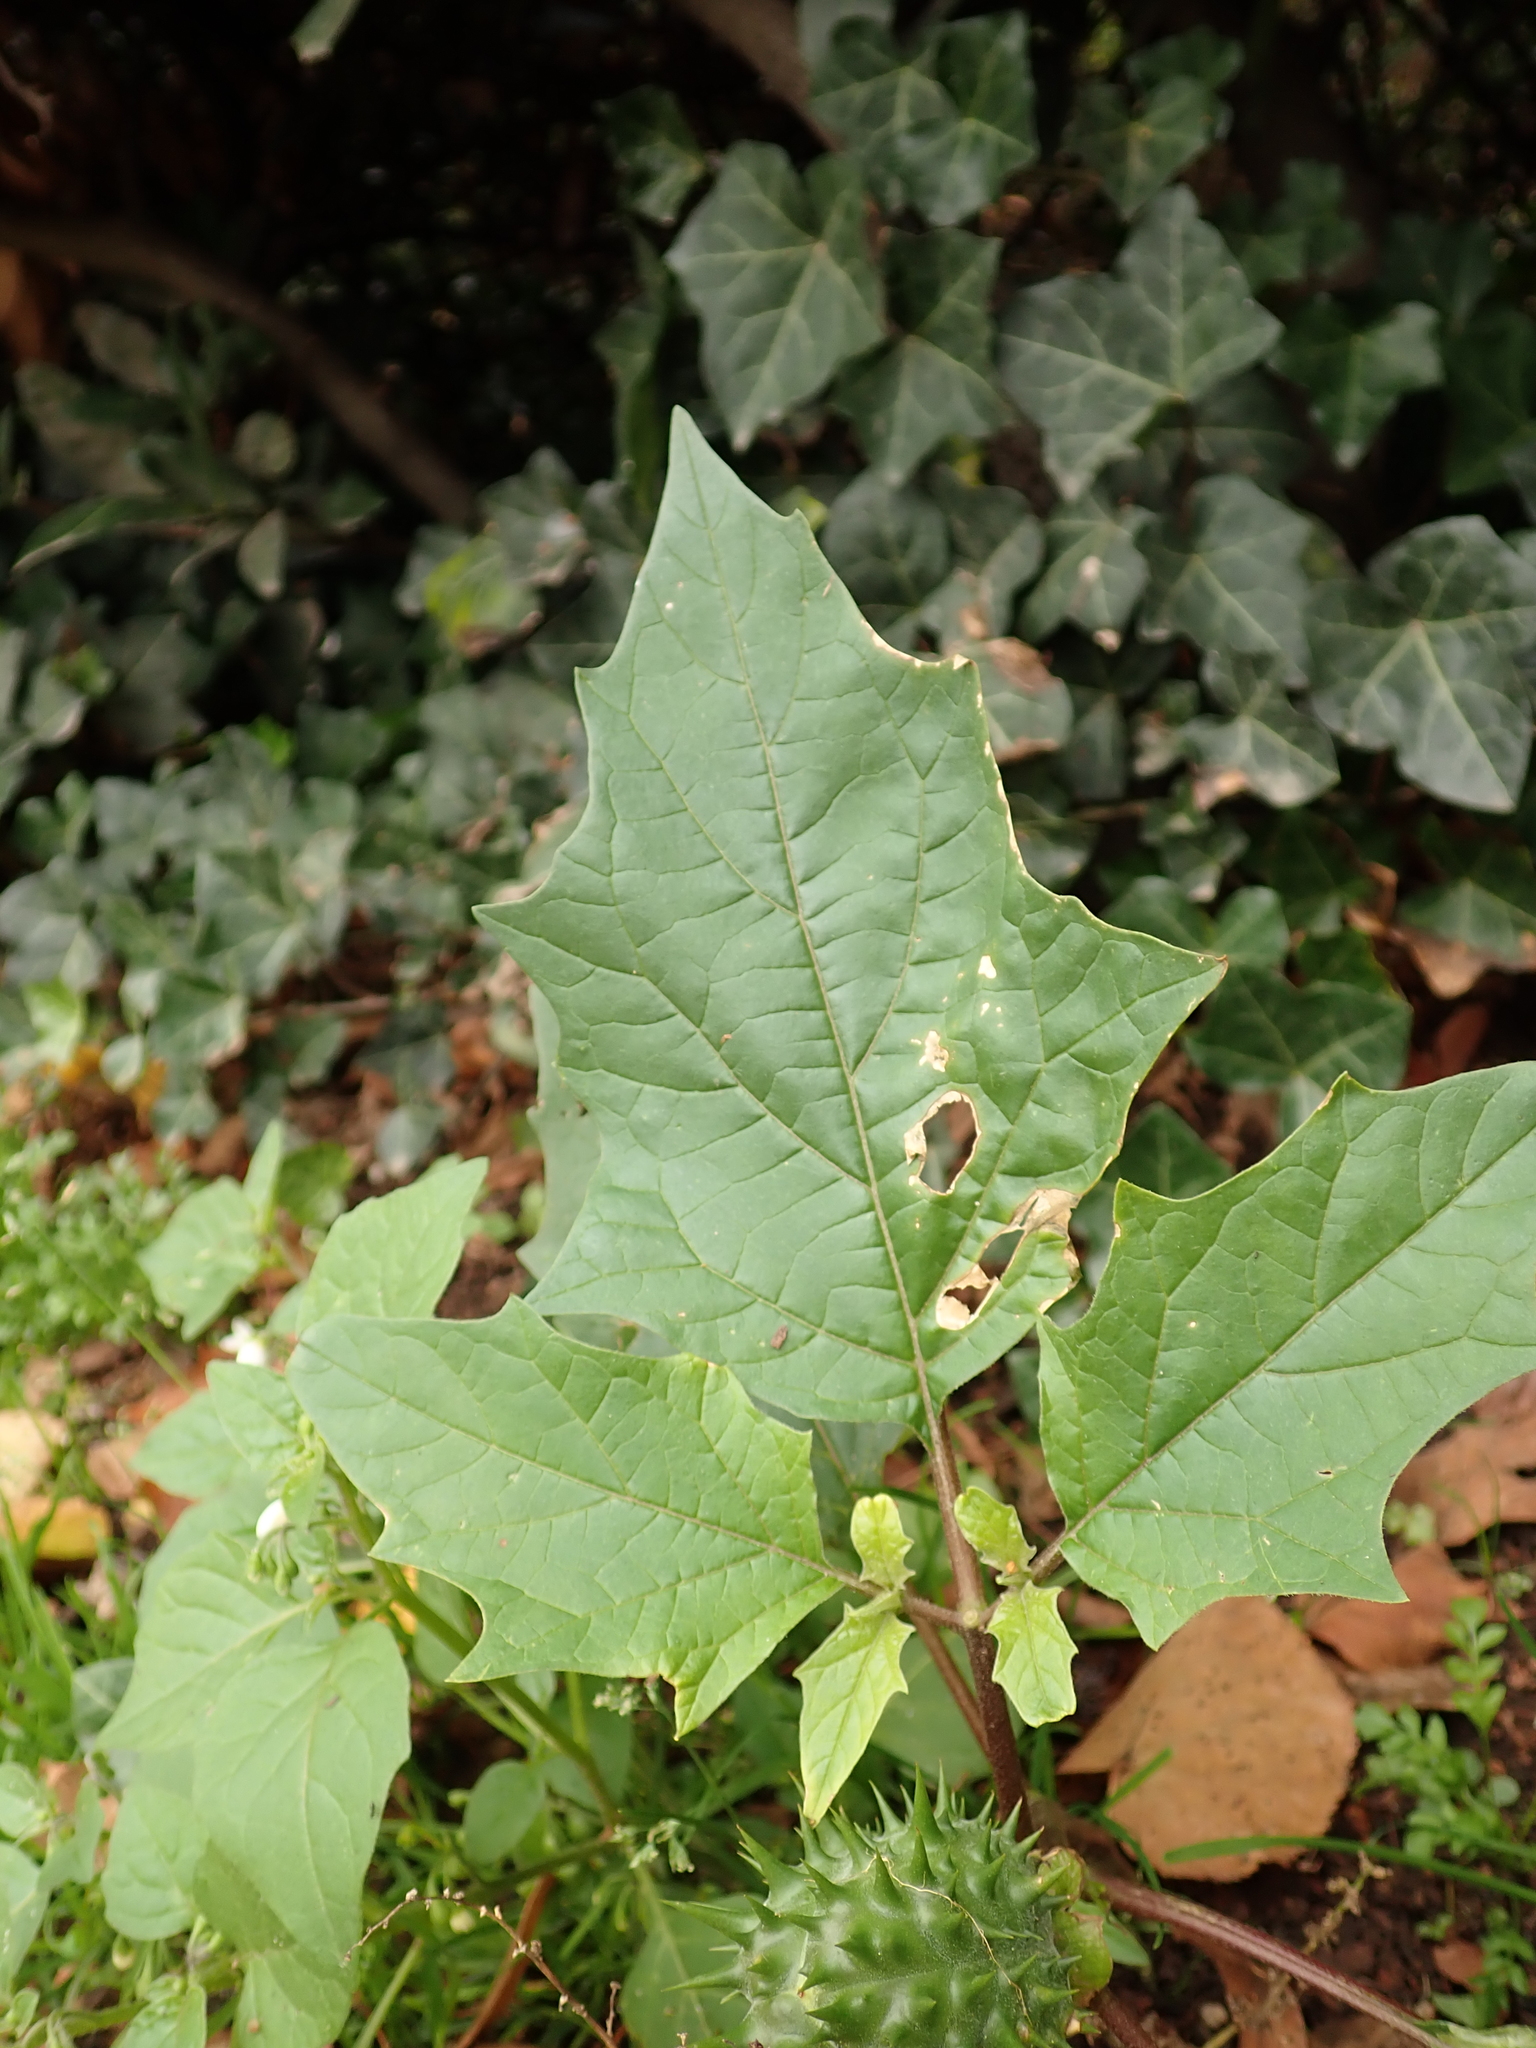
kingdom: Plantae
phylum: Tracheophyta
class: Magnoliopsida
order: Solanales
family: Solanaceae
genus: Datura
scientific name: Datura stramonium
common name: Thorn-apple
